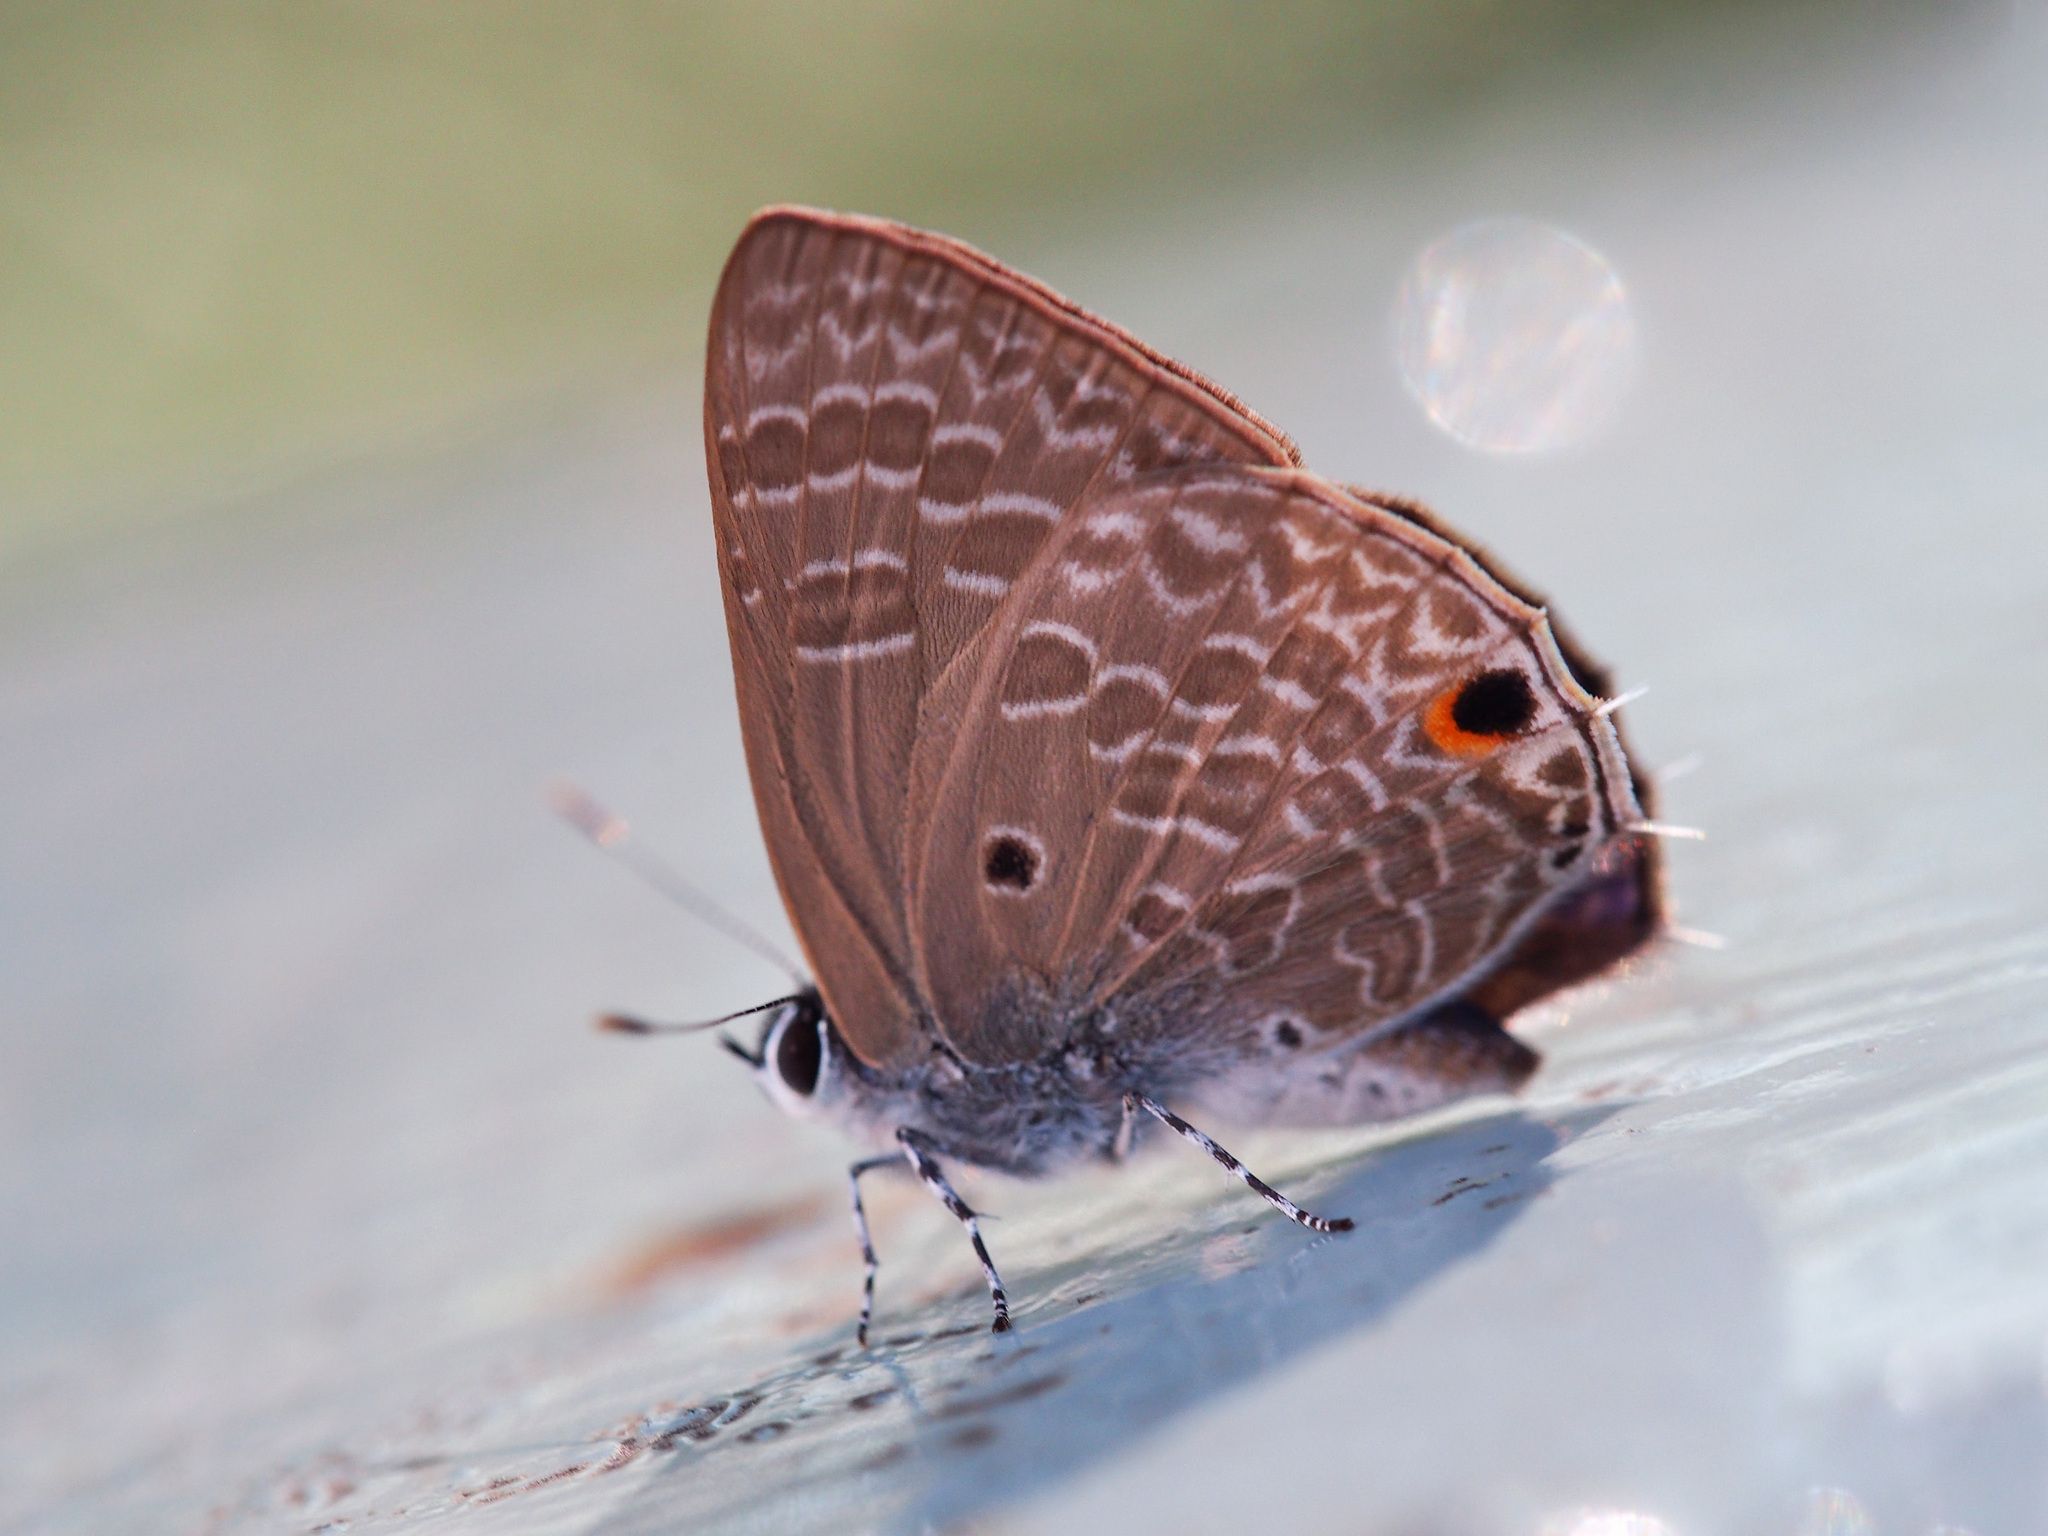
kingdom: Animalia
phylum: Arthropoda
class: Insecta
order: Lepidoptera
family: Lycaenidae
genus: Anthene
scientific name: Anthene lycaenina
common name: Pointed ciliate blue
